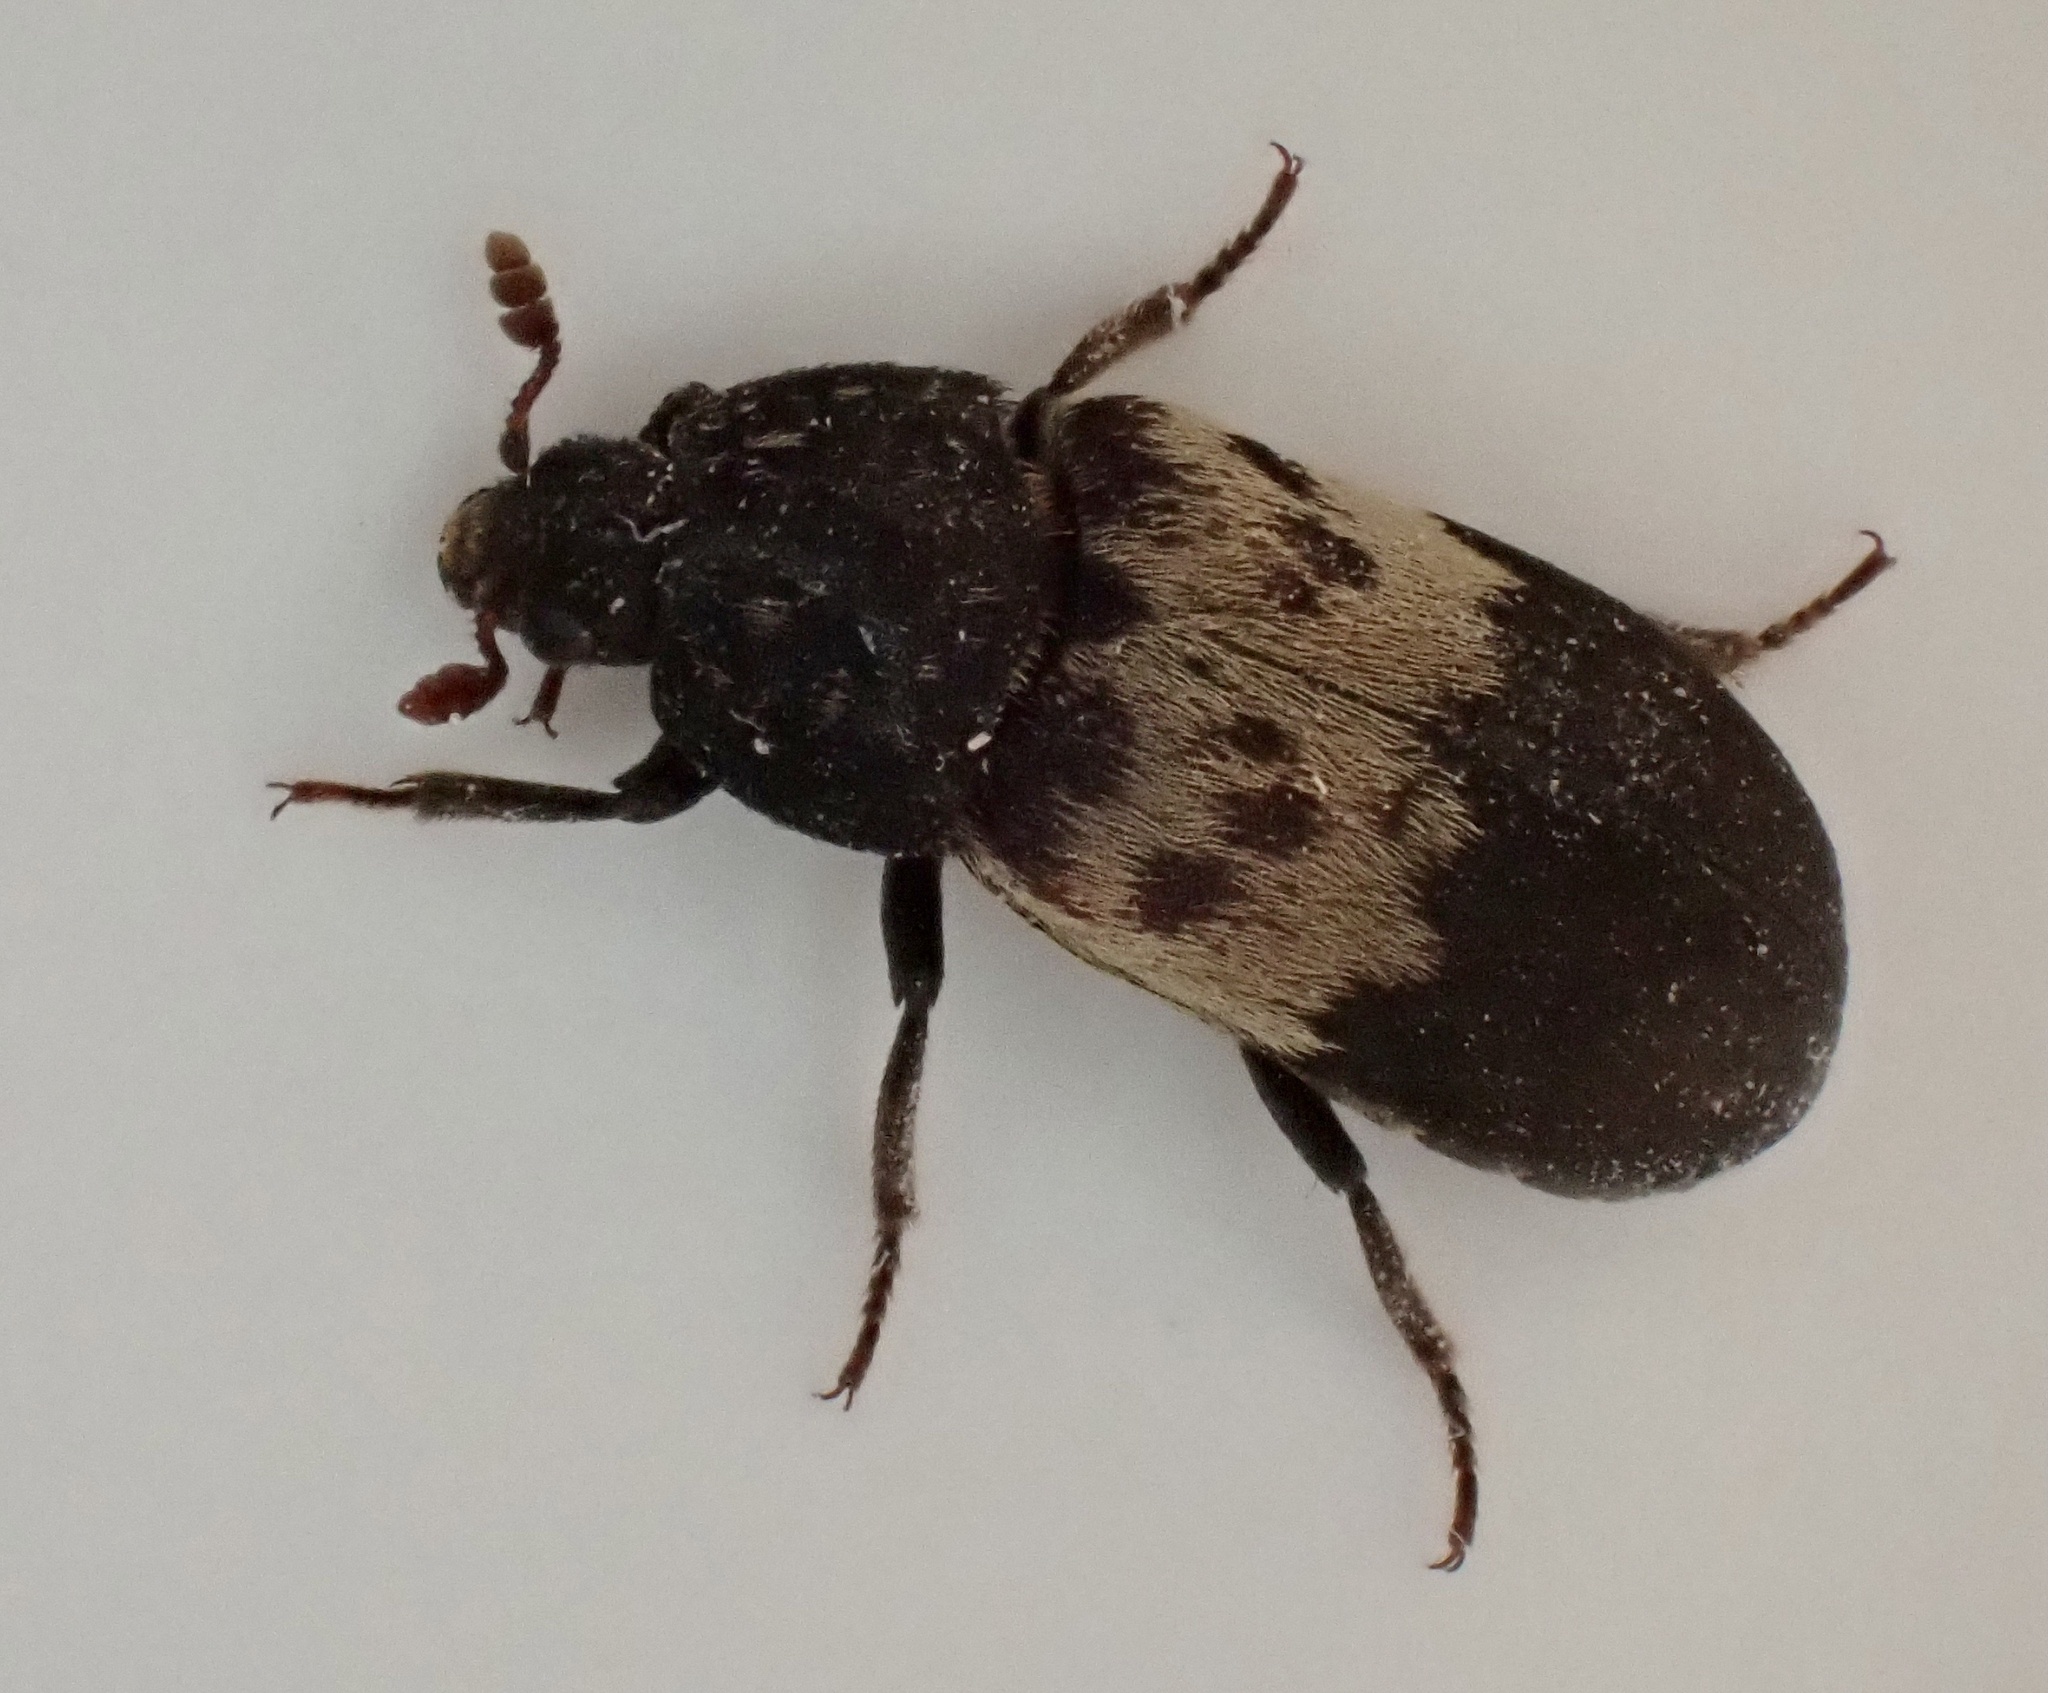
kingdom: Animalia
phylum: Arthropoda
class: Insecta
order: Coleoptera
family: Dermestidae
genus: Dermestes
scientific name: Dermestes lardarius
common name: Larder beetle
